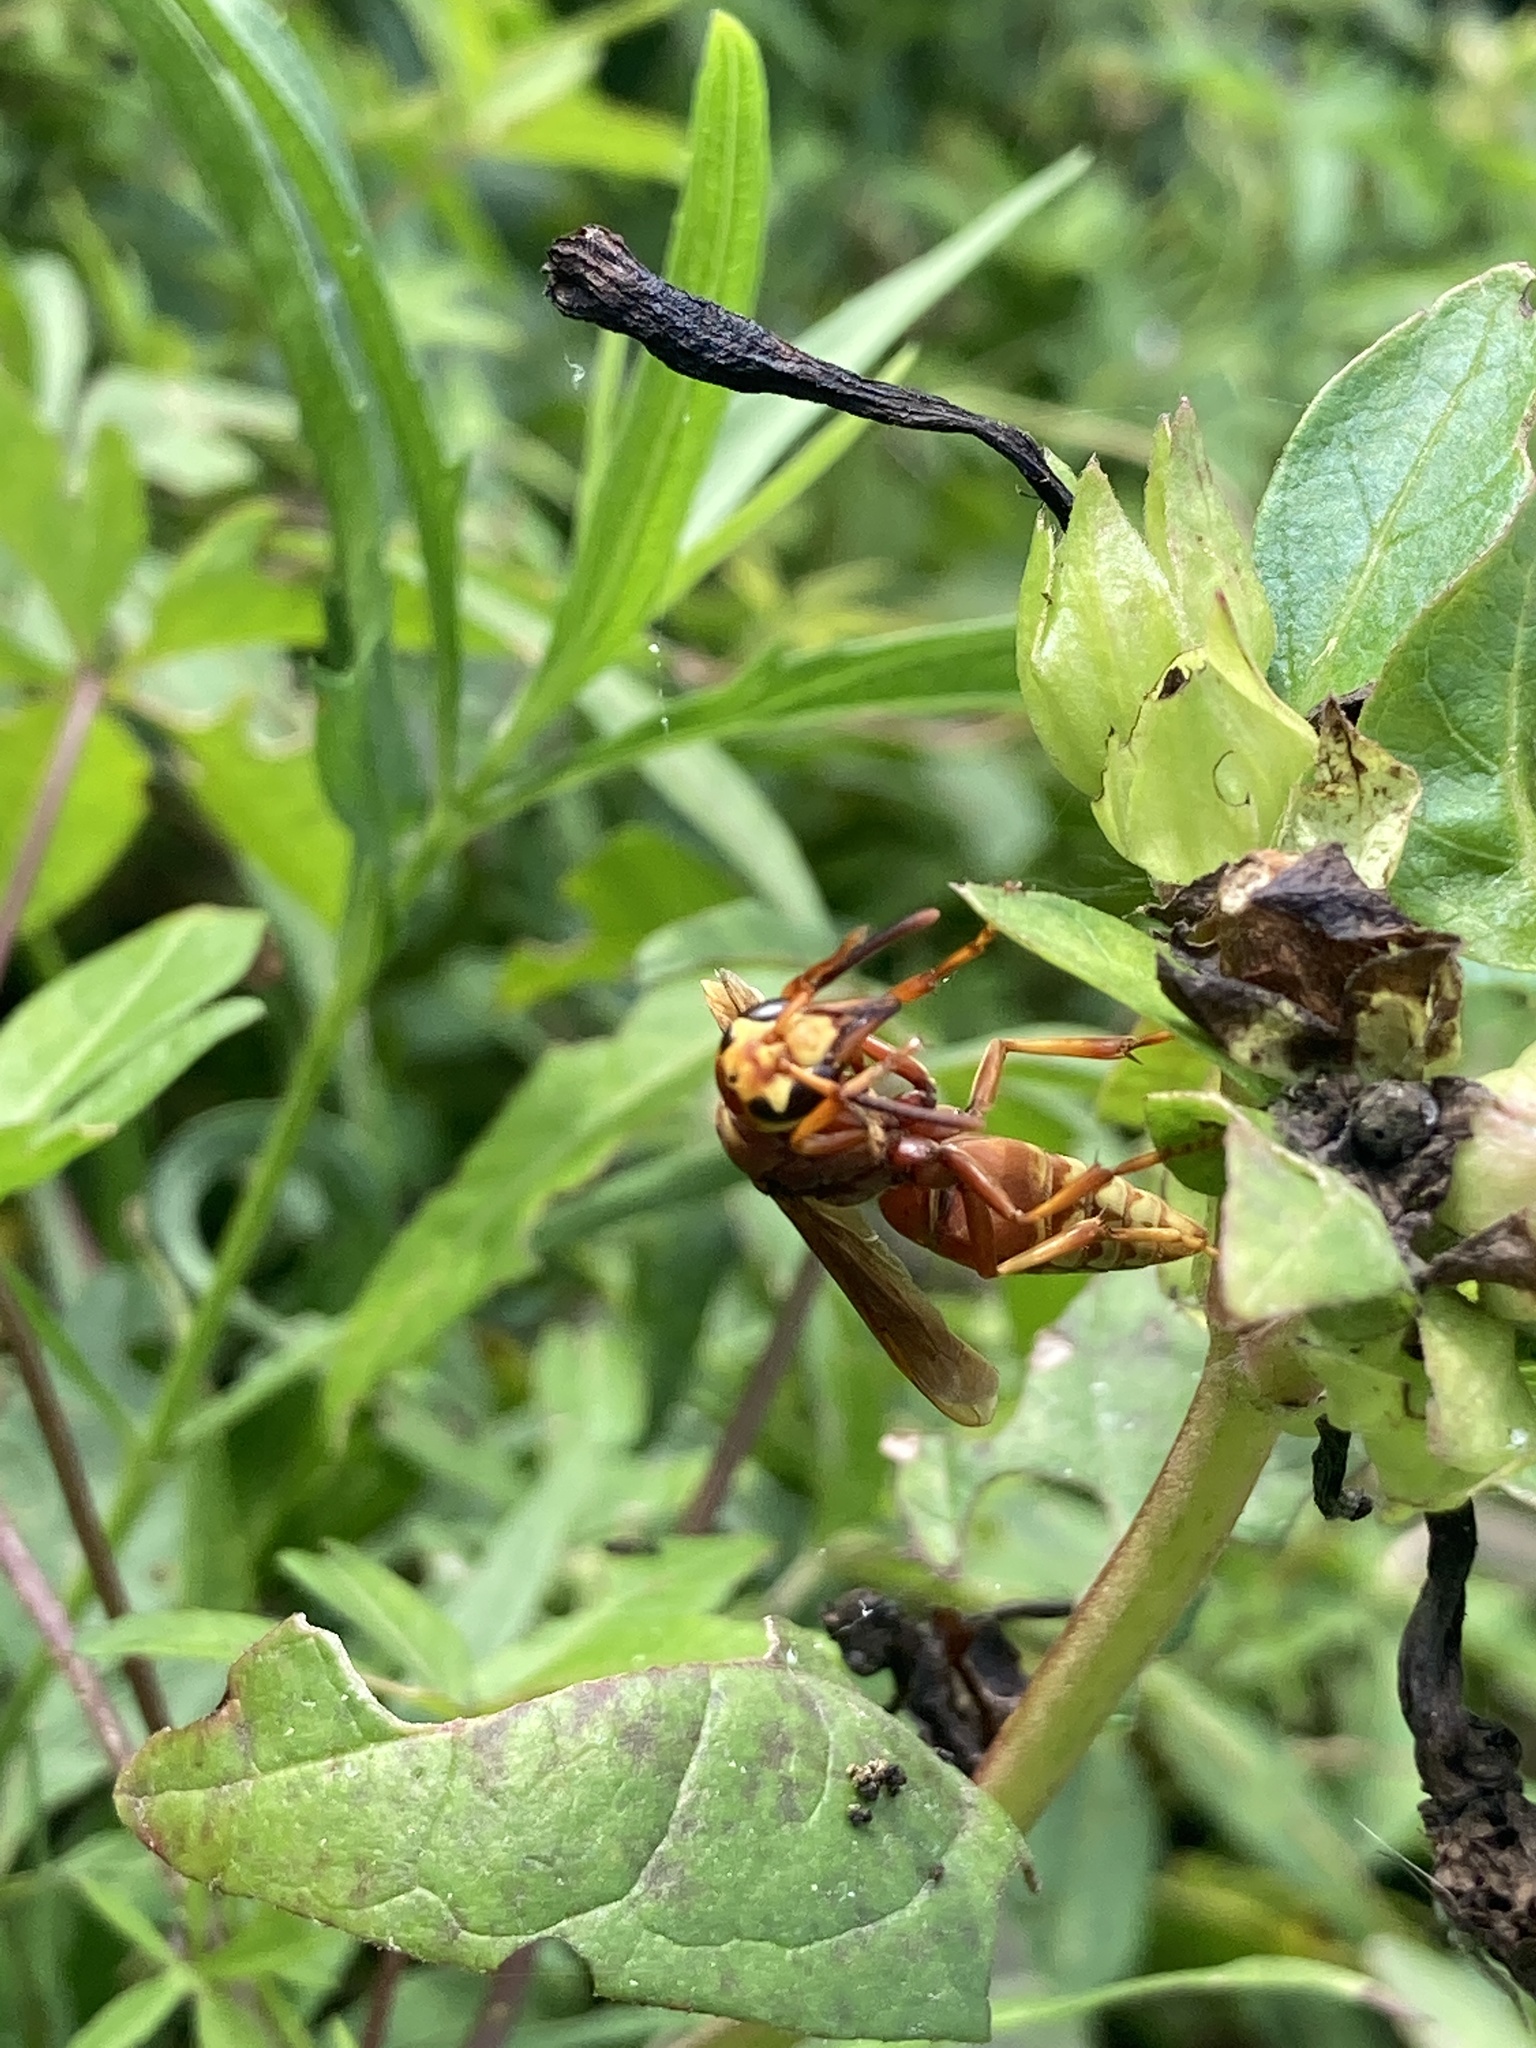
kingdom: Animalia
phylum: Arthropoda
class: Insecta
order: Hymenoptera
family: Eumenidae
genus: Montezumia
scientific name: Montezumia ferruginea
